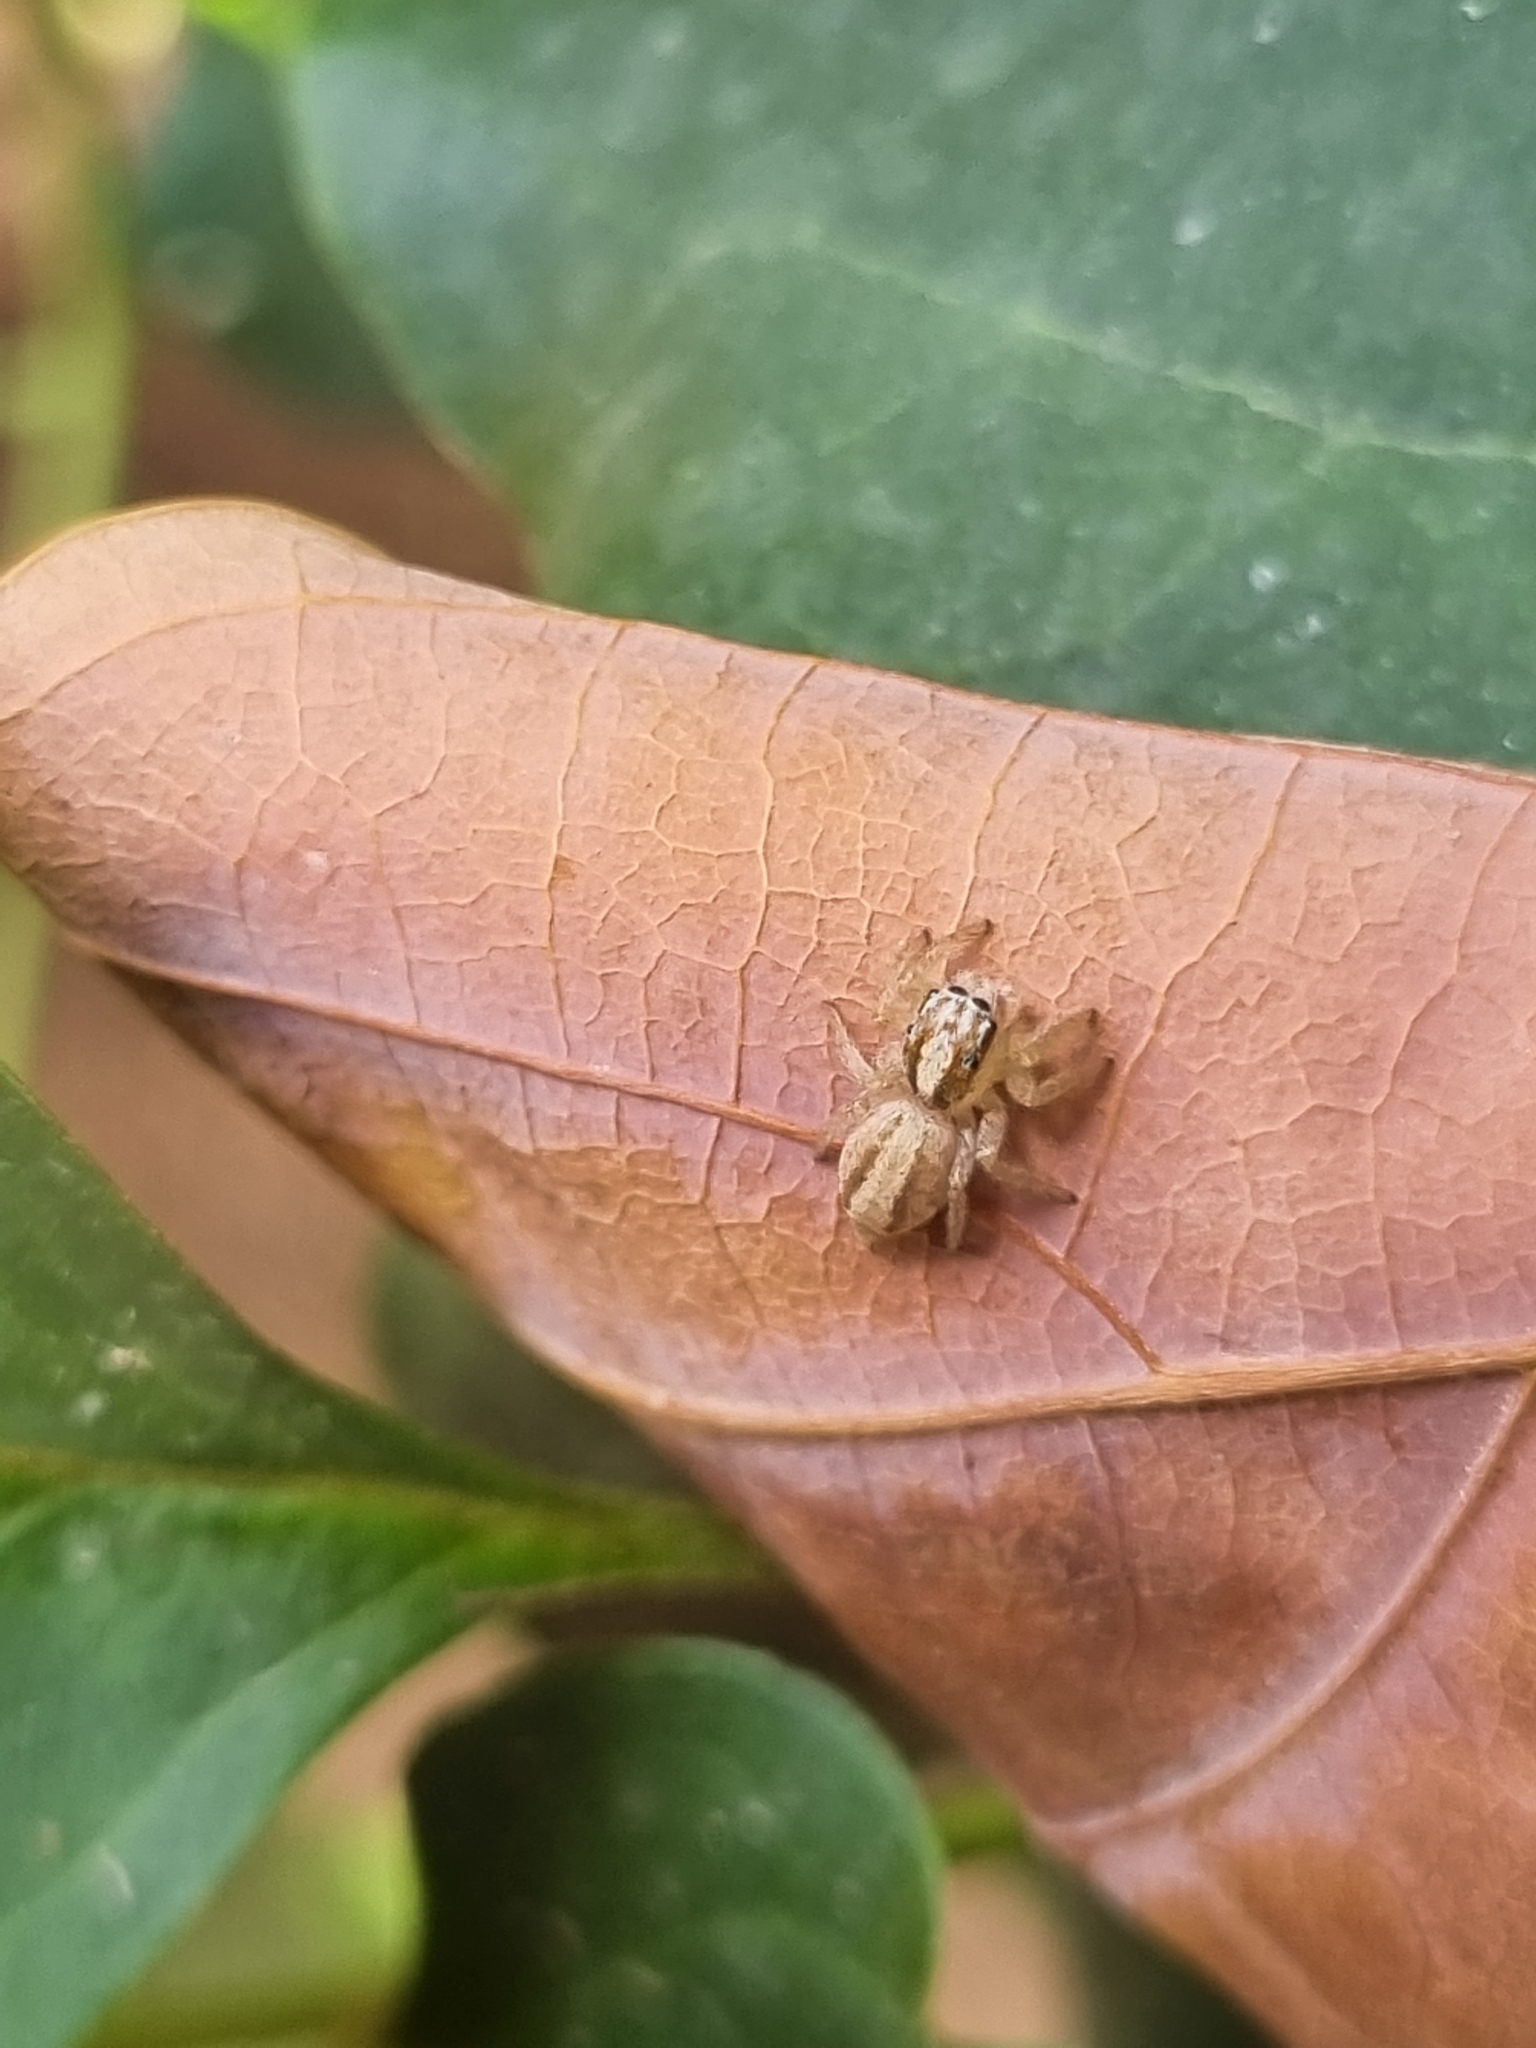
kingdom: Animalia
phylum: Arthropoda
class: Arachnida
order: Araneae
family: Salticidae
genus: Megafreya
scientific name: Megafreya sutrix
